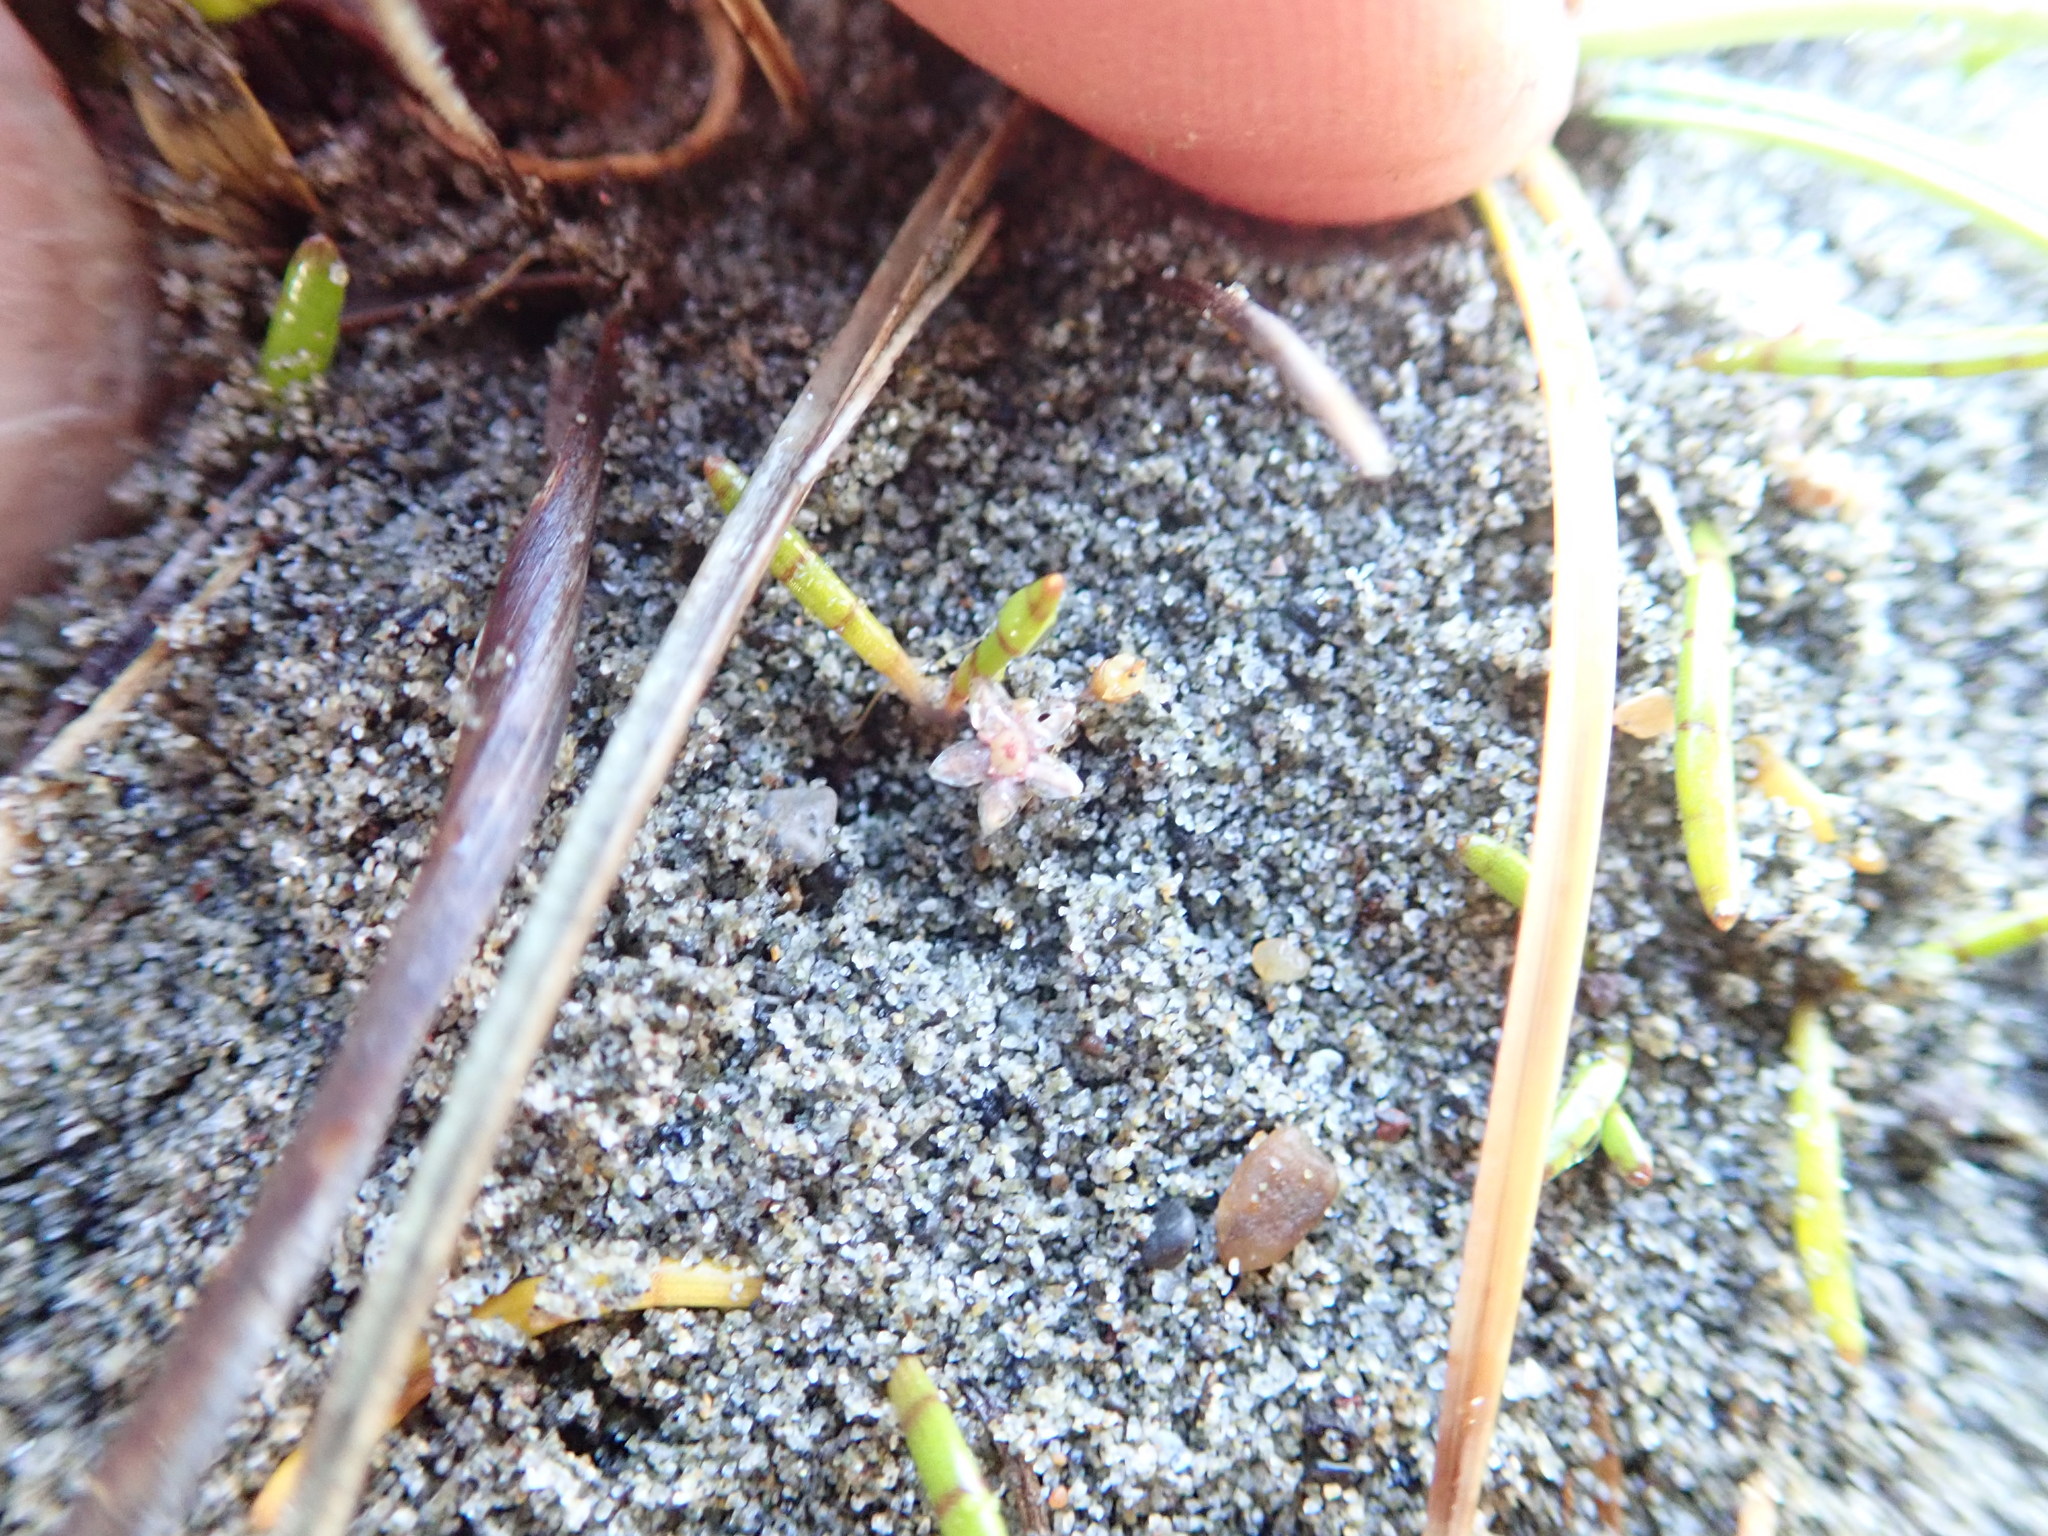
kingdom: Plantae
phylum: Tracheophyta
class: Magnoliopsida
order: Apiales
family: Apiaceae
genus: Lilaeopsis
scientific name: Lilaeopsis novae-zelandiae
